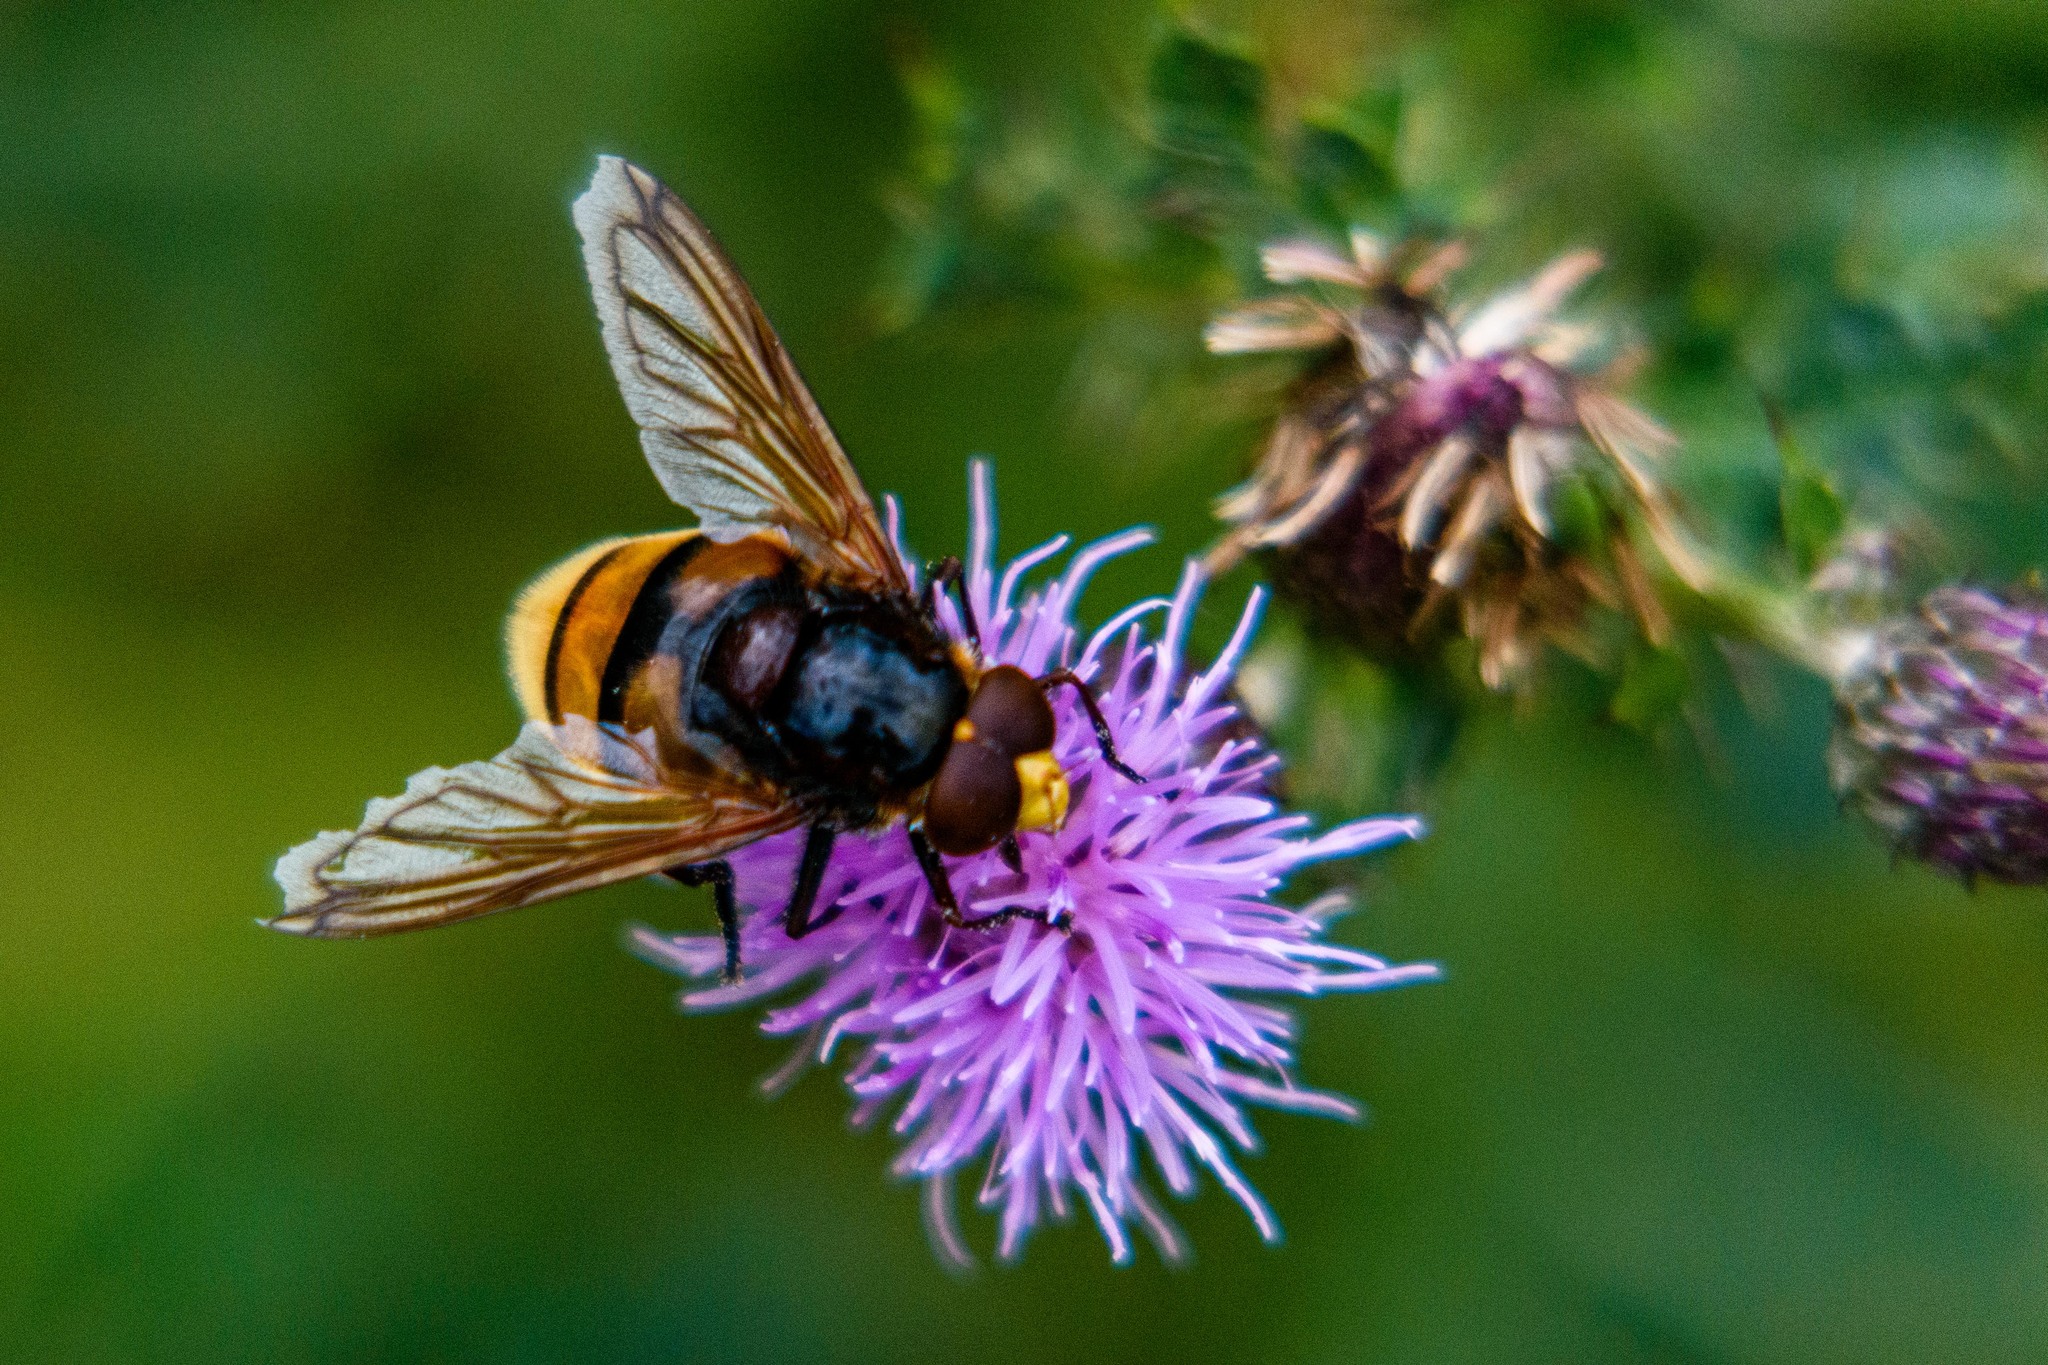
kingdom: Animalia
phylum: Arthropoda
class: Insecta
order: Diptera
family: Syrphidae
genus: Volucella
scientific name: Volucella zonaria
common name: Hornet hoverfly
